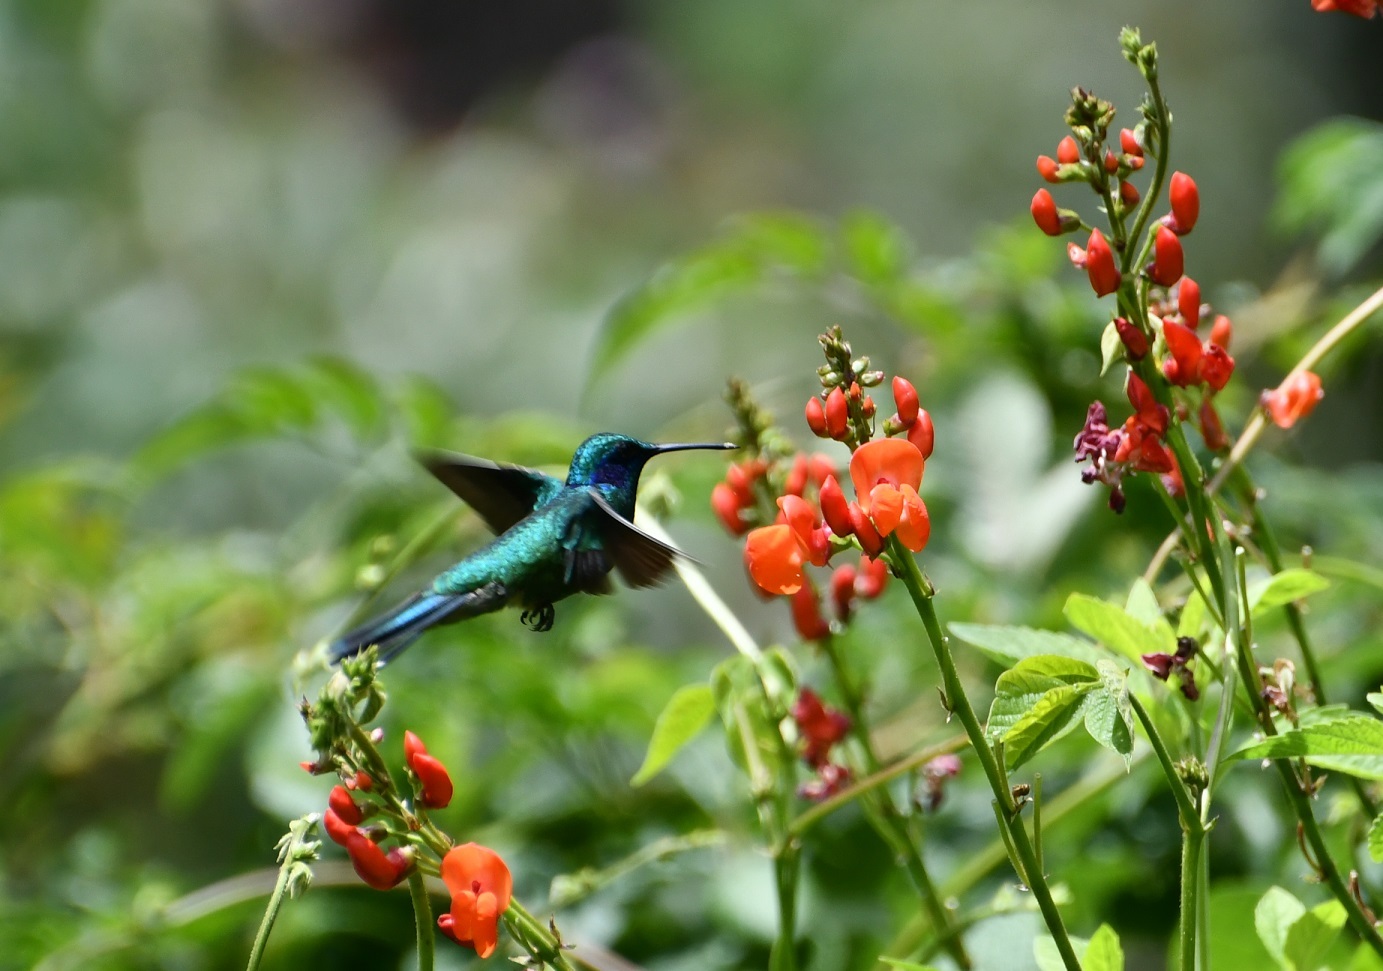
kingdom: Animalia
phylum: Chordata
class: Aves
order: Apodiformes
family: Trochilidae
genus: Colibri
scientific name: Colibri thalassinus
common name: Green violetear
